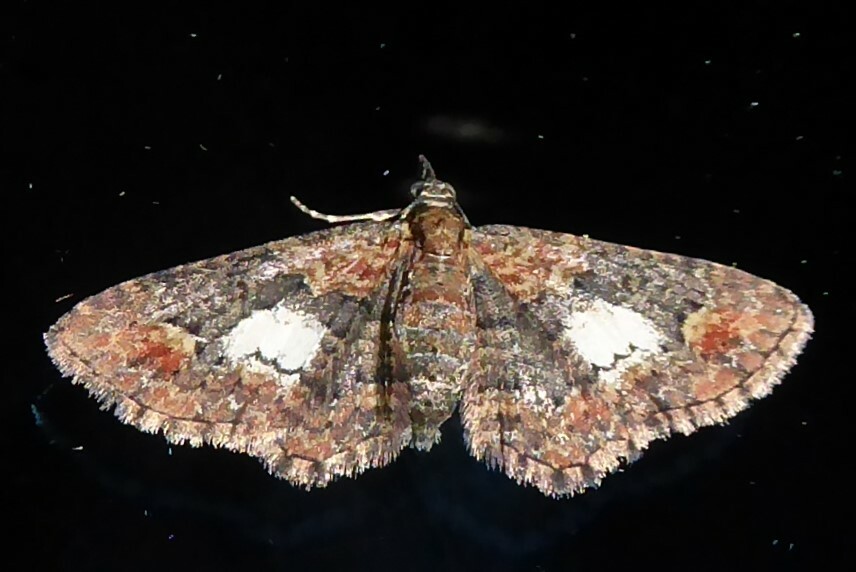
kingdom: Animalia
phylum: Arthropoda
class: Insecta
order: Lepidoptera
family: Geometridae
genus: Pasiphilodes
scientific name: Pasiphilodes testulata
